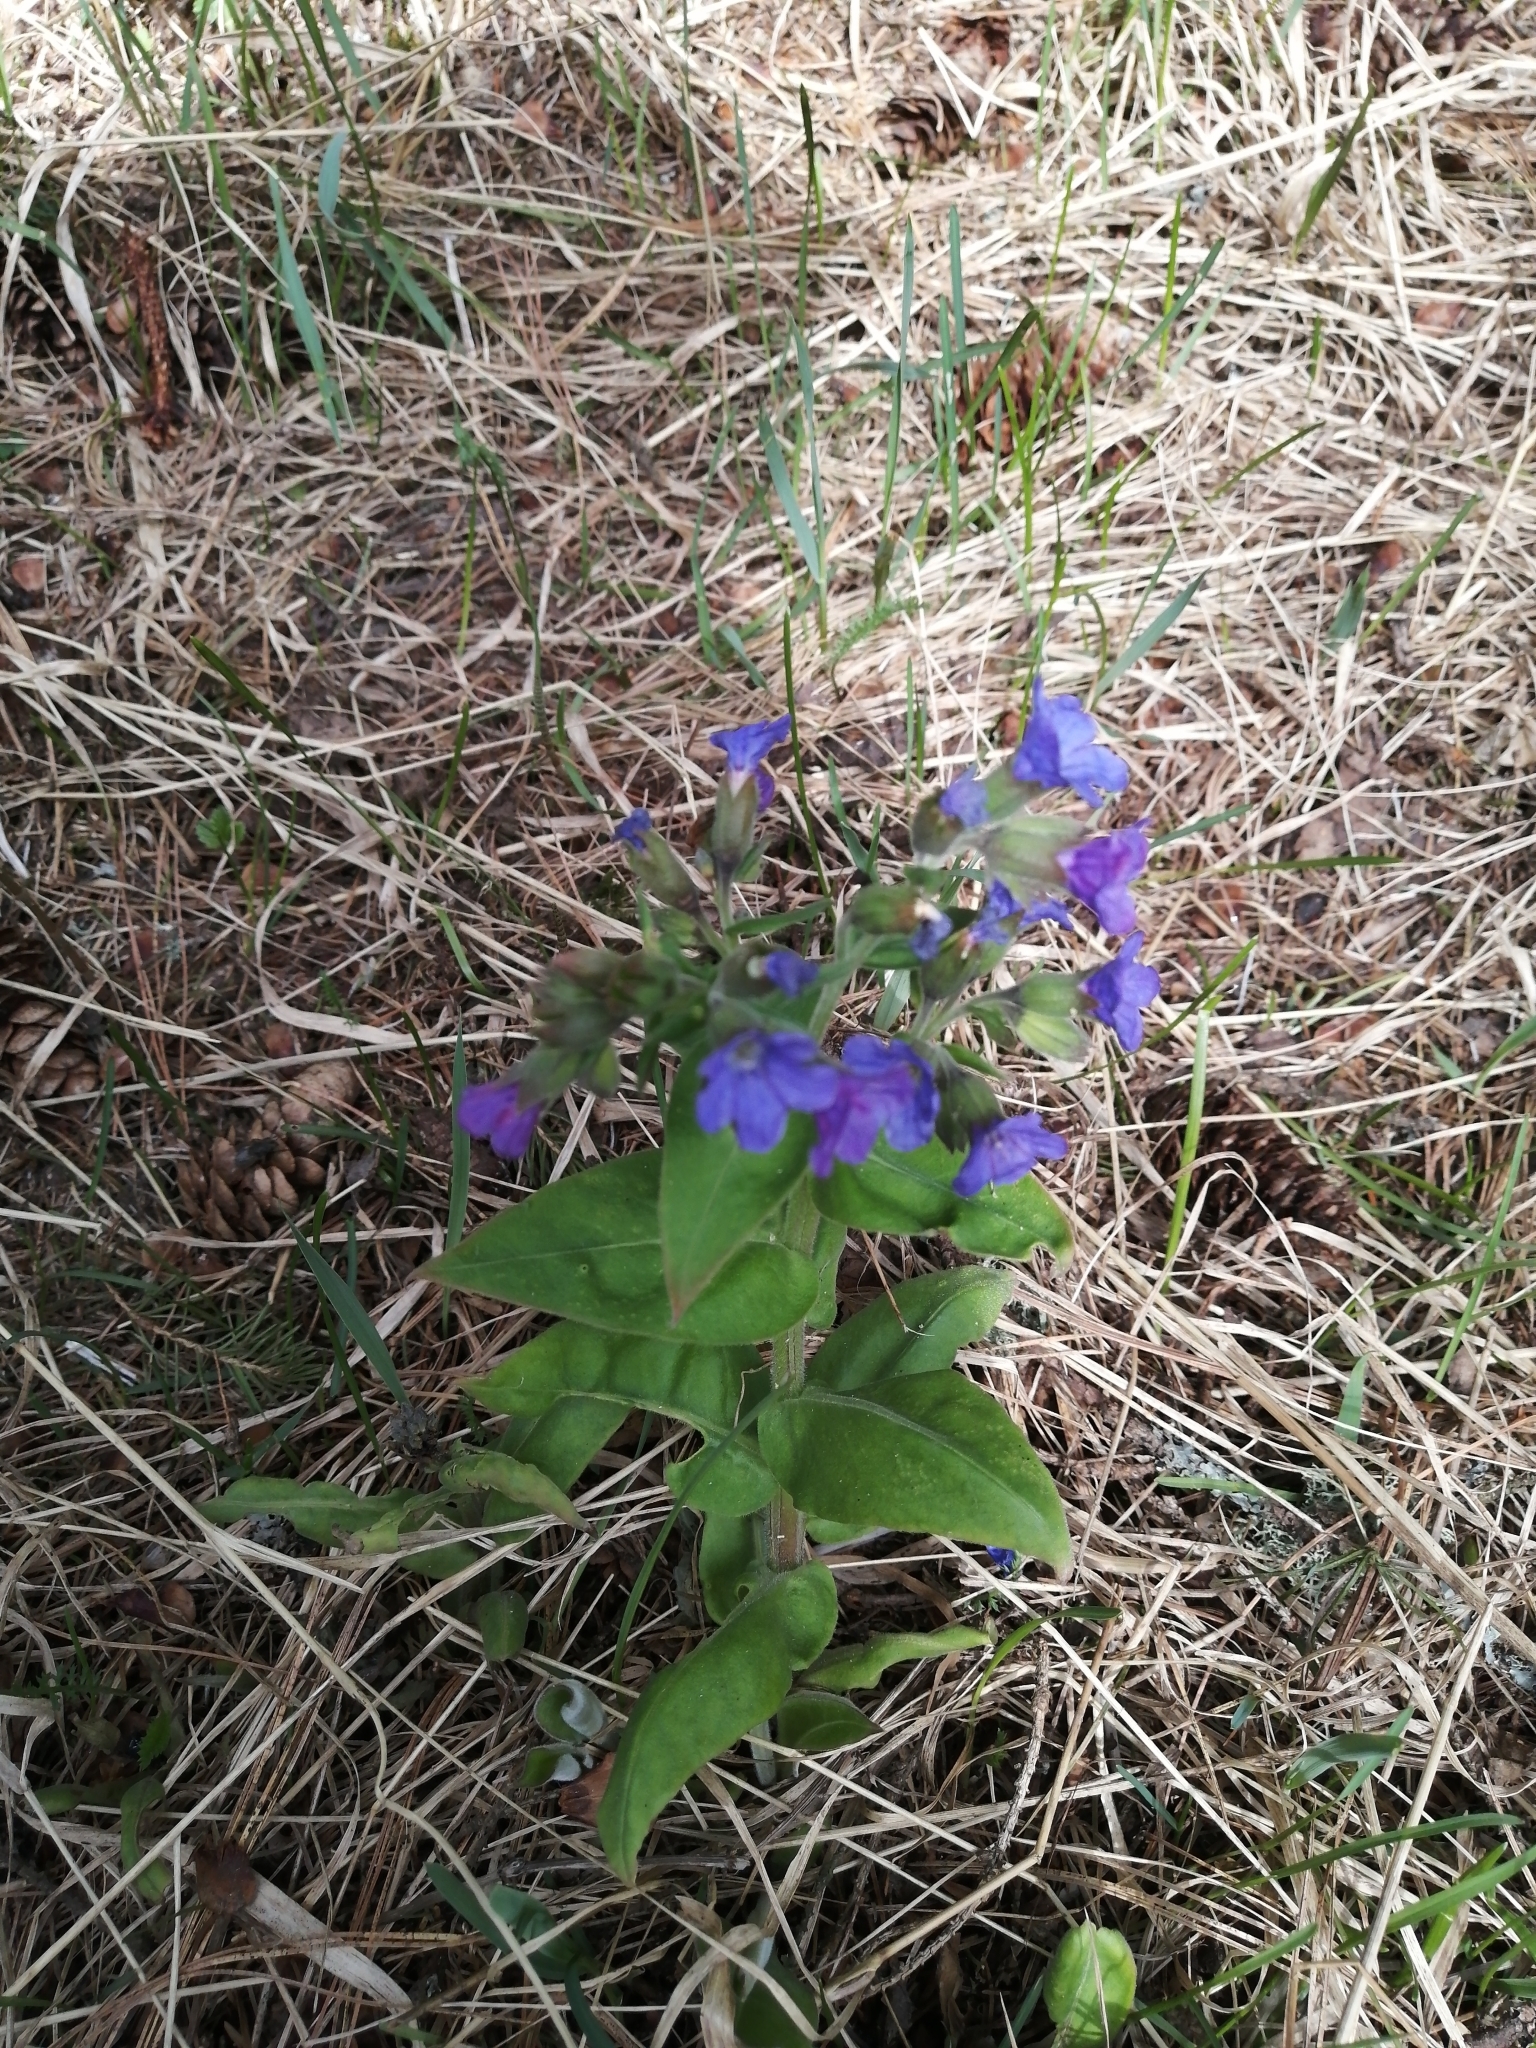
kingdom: Plantae
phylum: Tracheophyta
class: Magnoliopsida
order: Boraginales
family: Boraginaceae
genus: Pulmonaria
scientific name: Pulmonaria mollis
